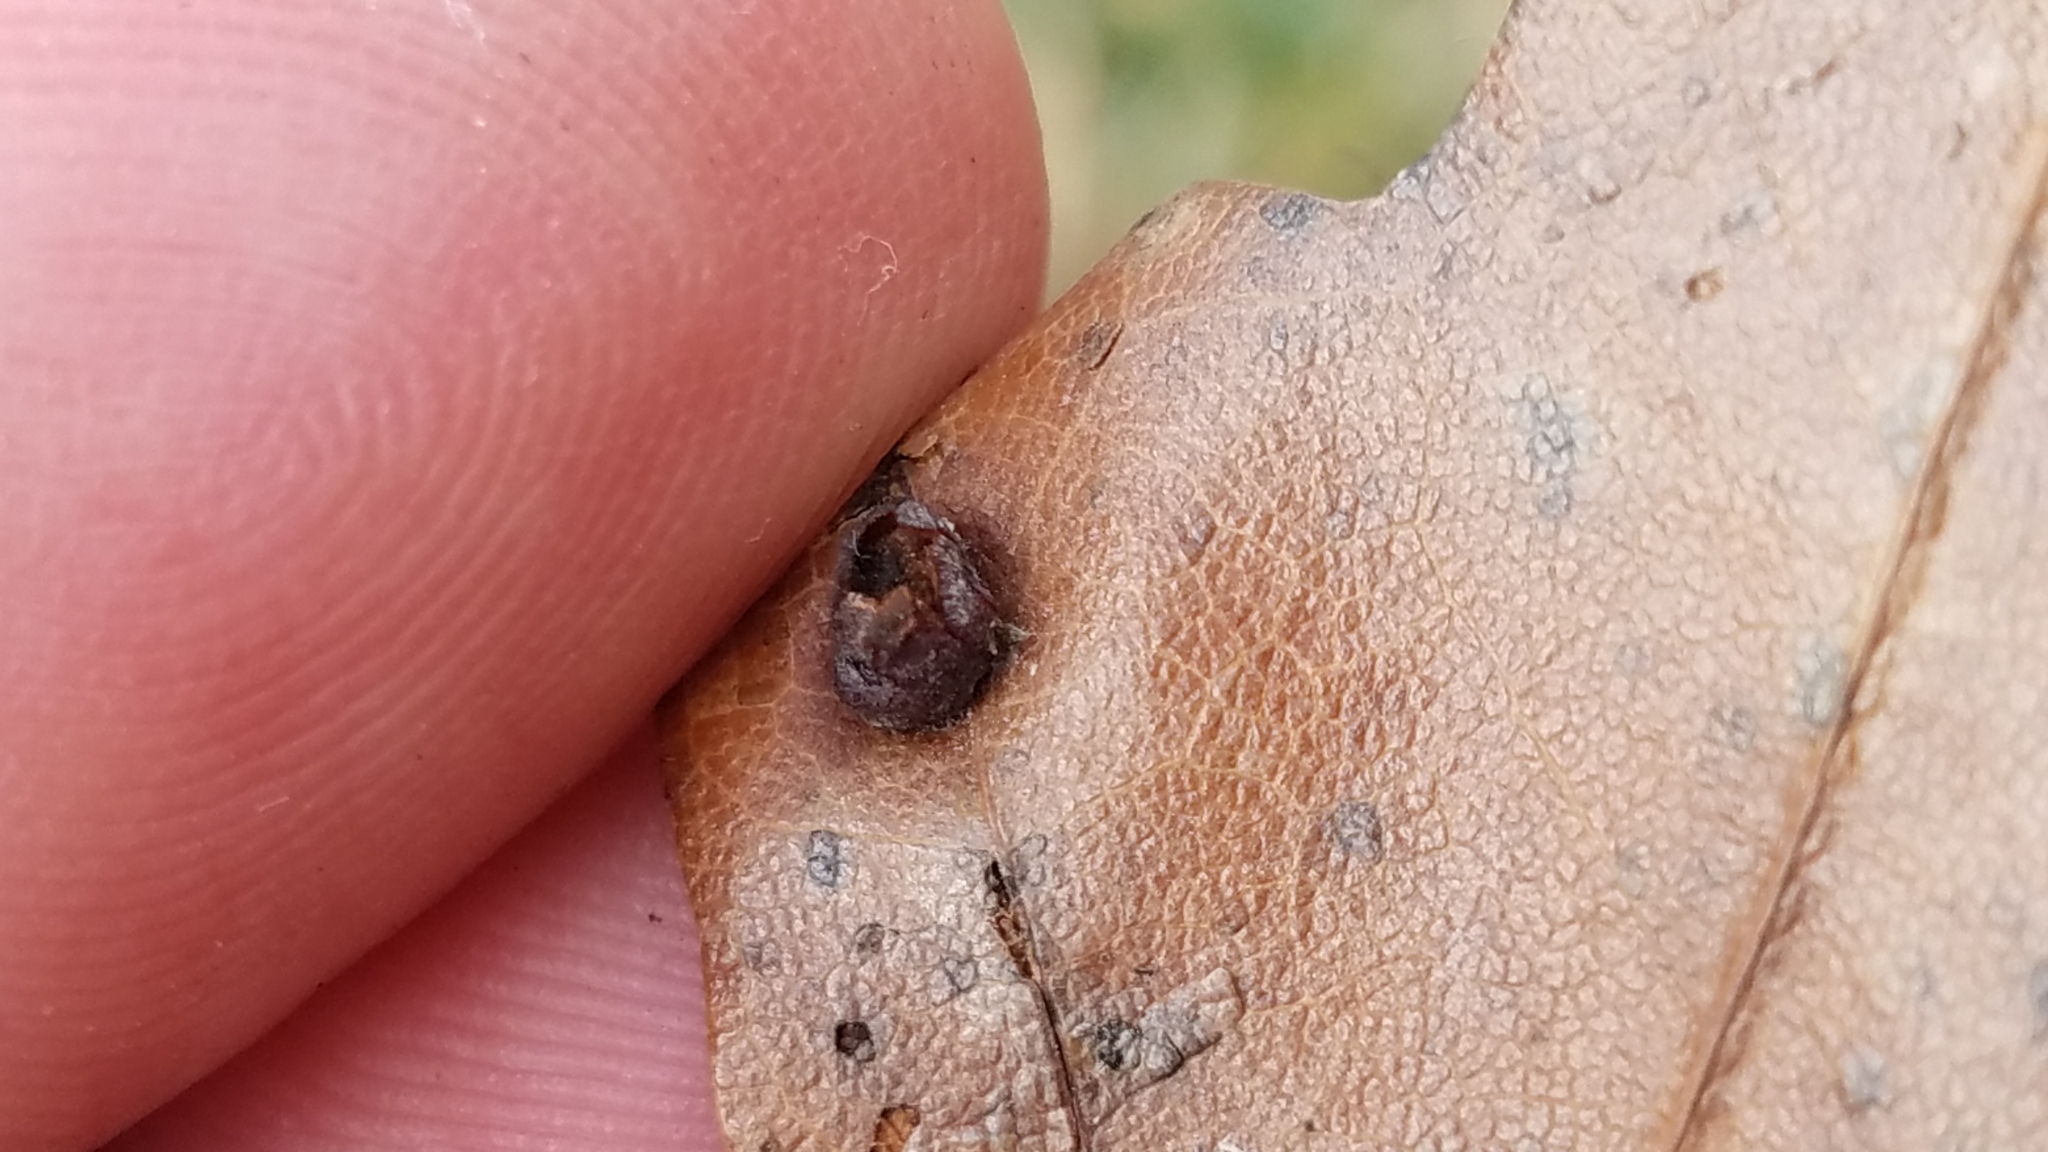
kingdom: Animalia
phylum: Arthropoda
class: Insecta
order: Diptera
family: Cecidomyiidae
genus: Polystepha
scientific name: Polystepha pilulae
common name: Oak leaf gall midge
